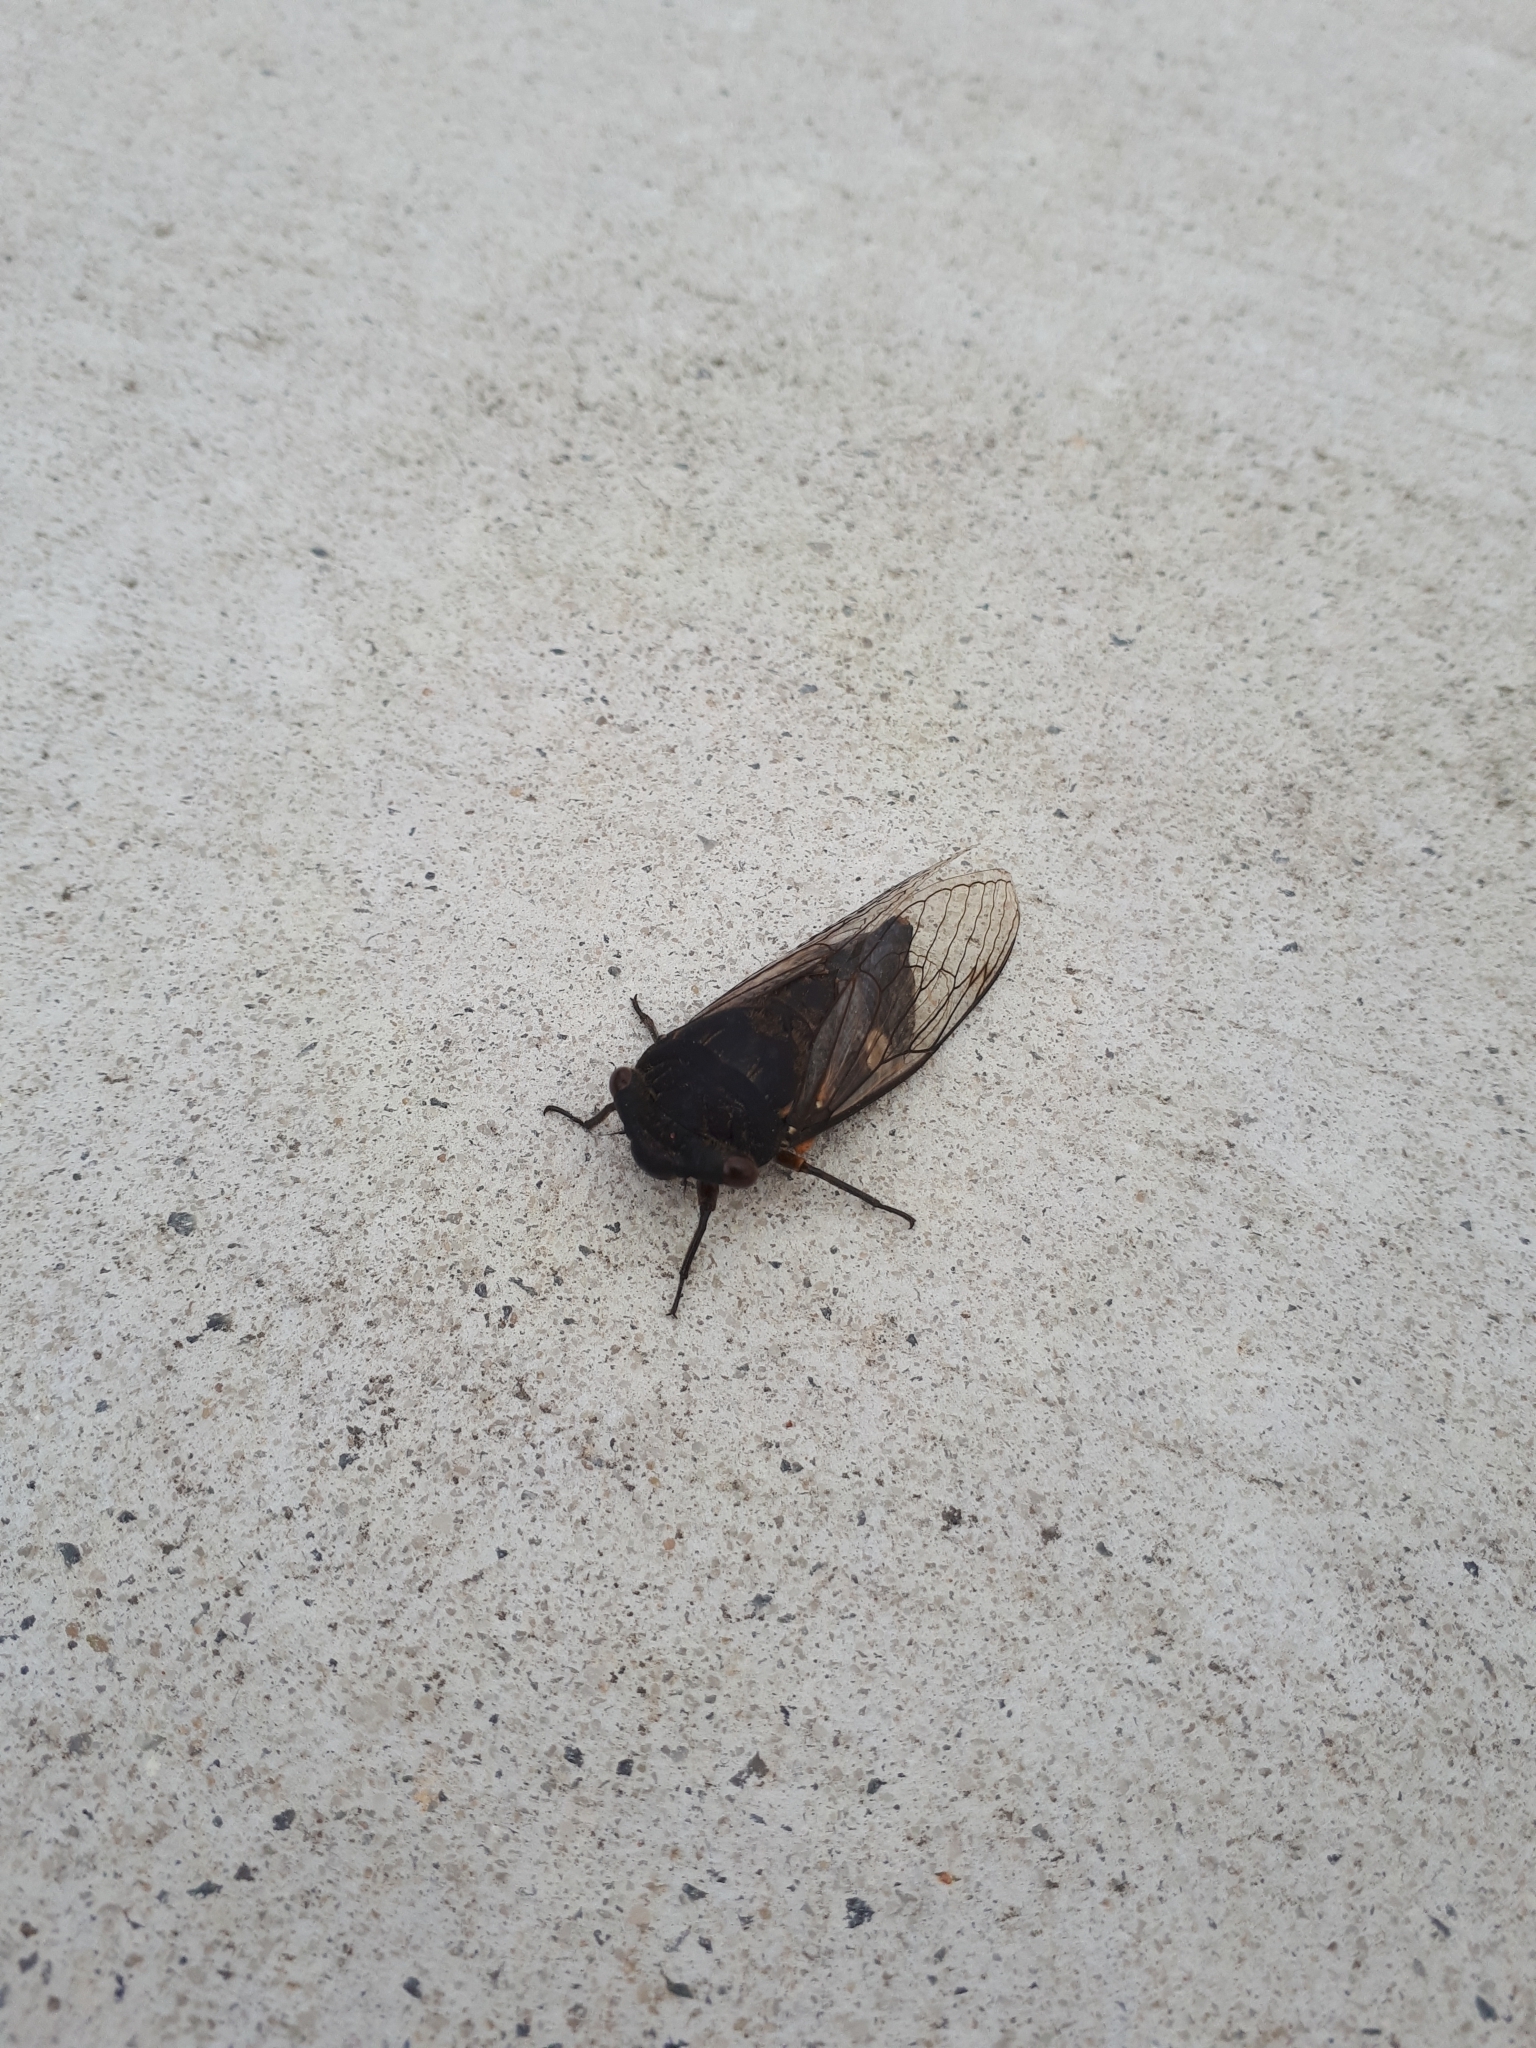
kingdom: Animalia
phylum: Arthropoda
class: Insecta
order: Hemiptera
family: Cicadidae
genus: Psaltoda
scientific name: Psaltoda plaga
